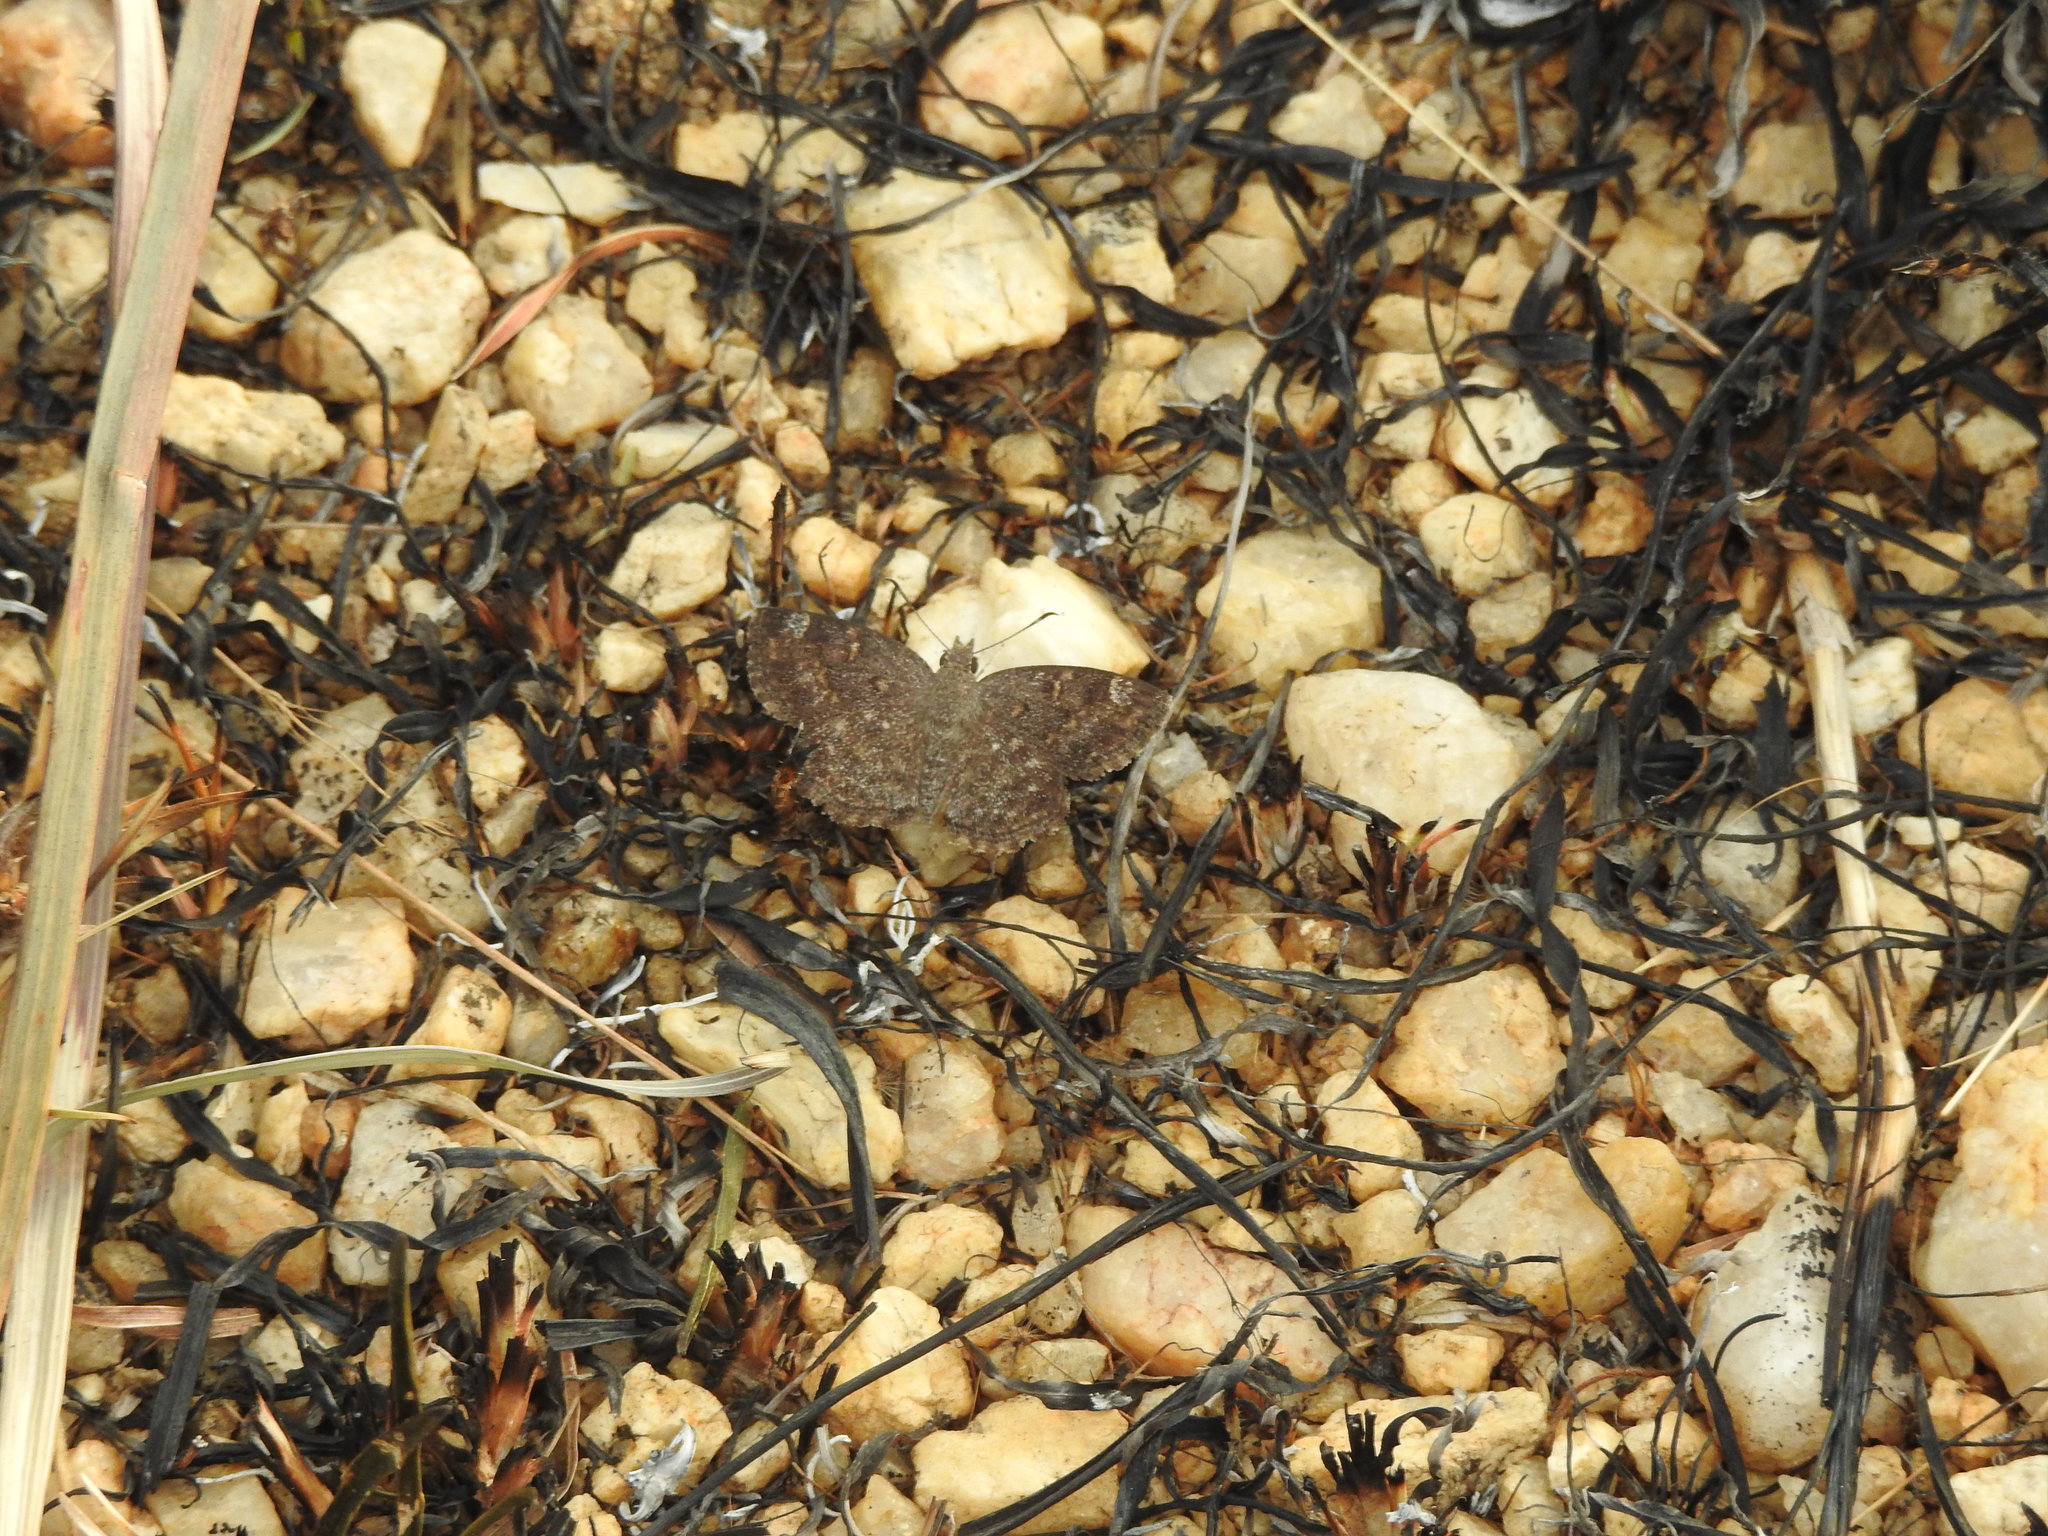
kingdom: Animalia
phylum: Arthropoda
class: Insecta
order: Lepidoptera
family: Hesperiidae
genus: Sarangesa
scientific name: Sarangesa purendra
